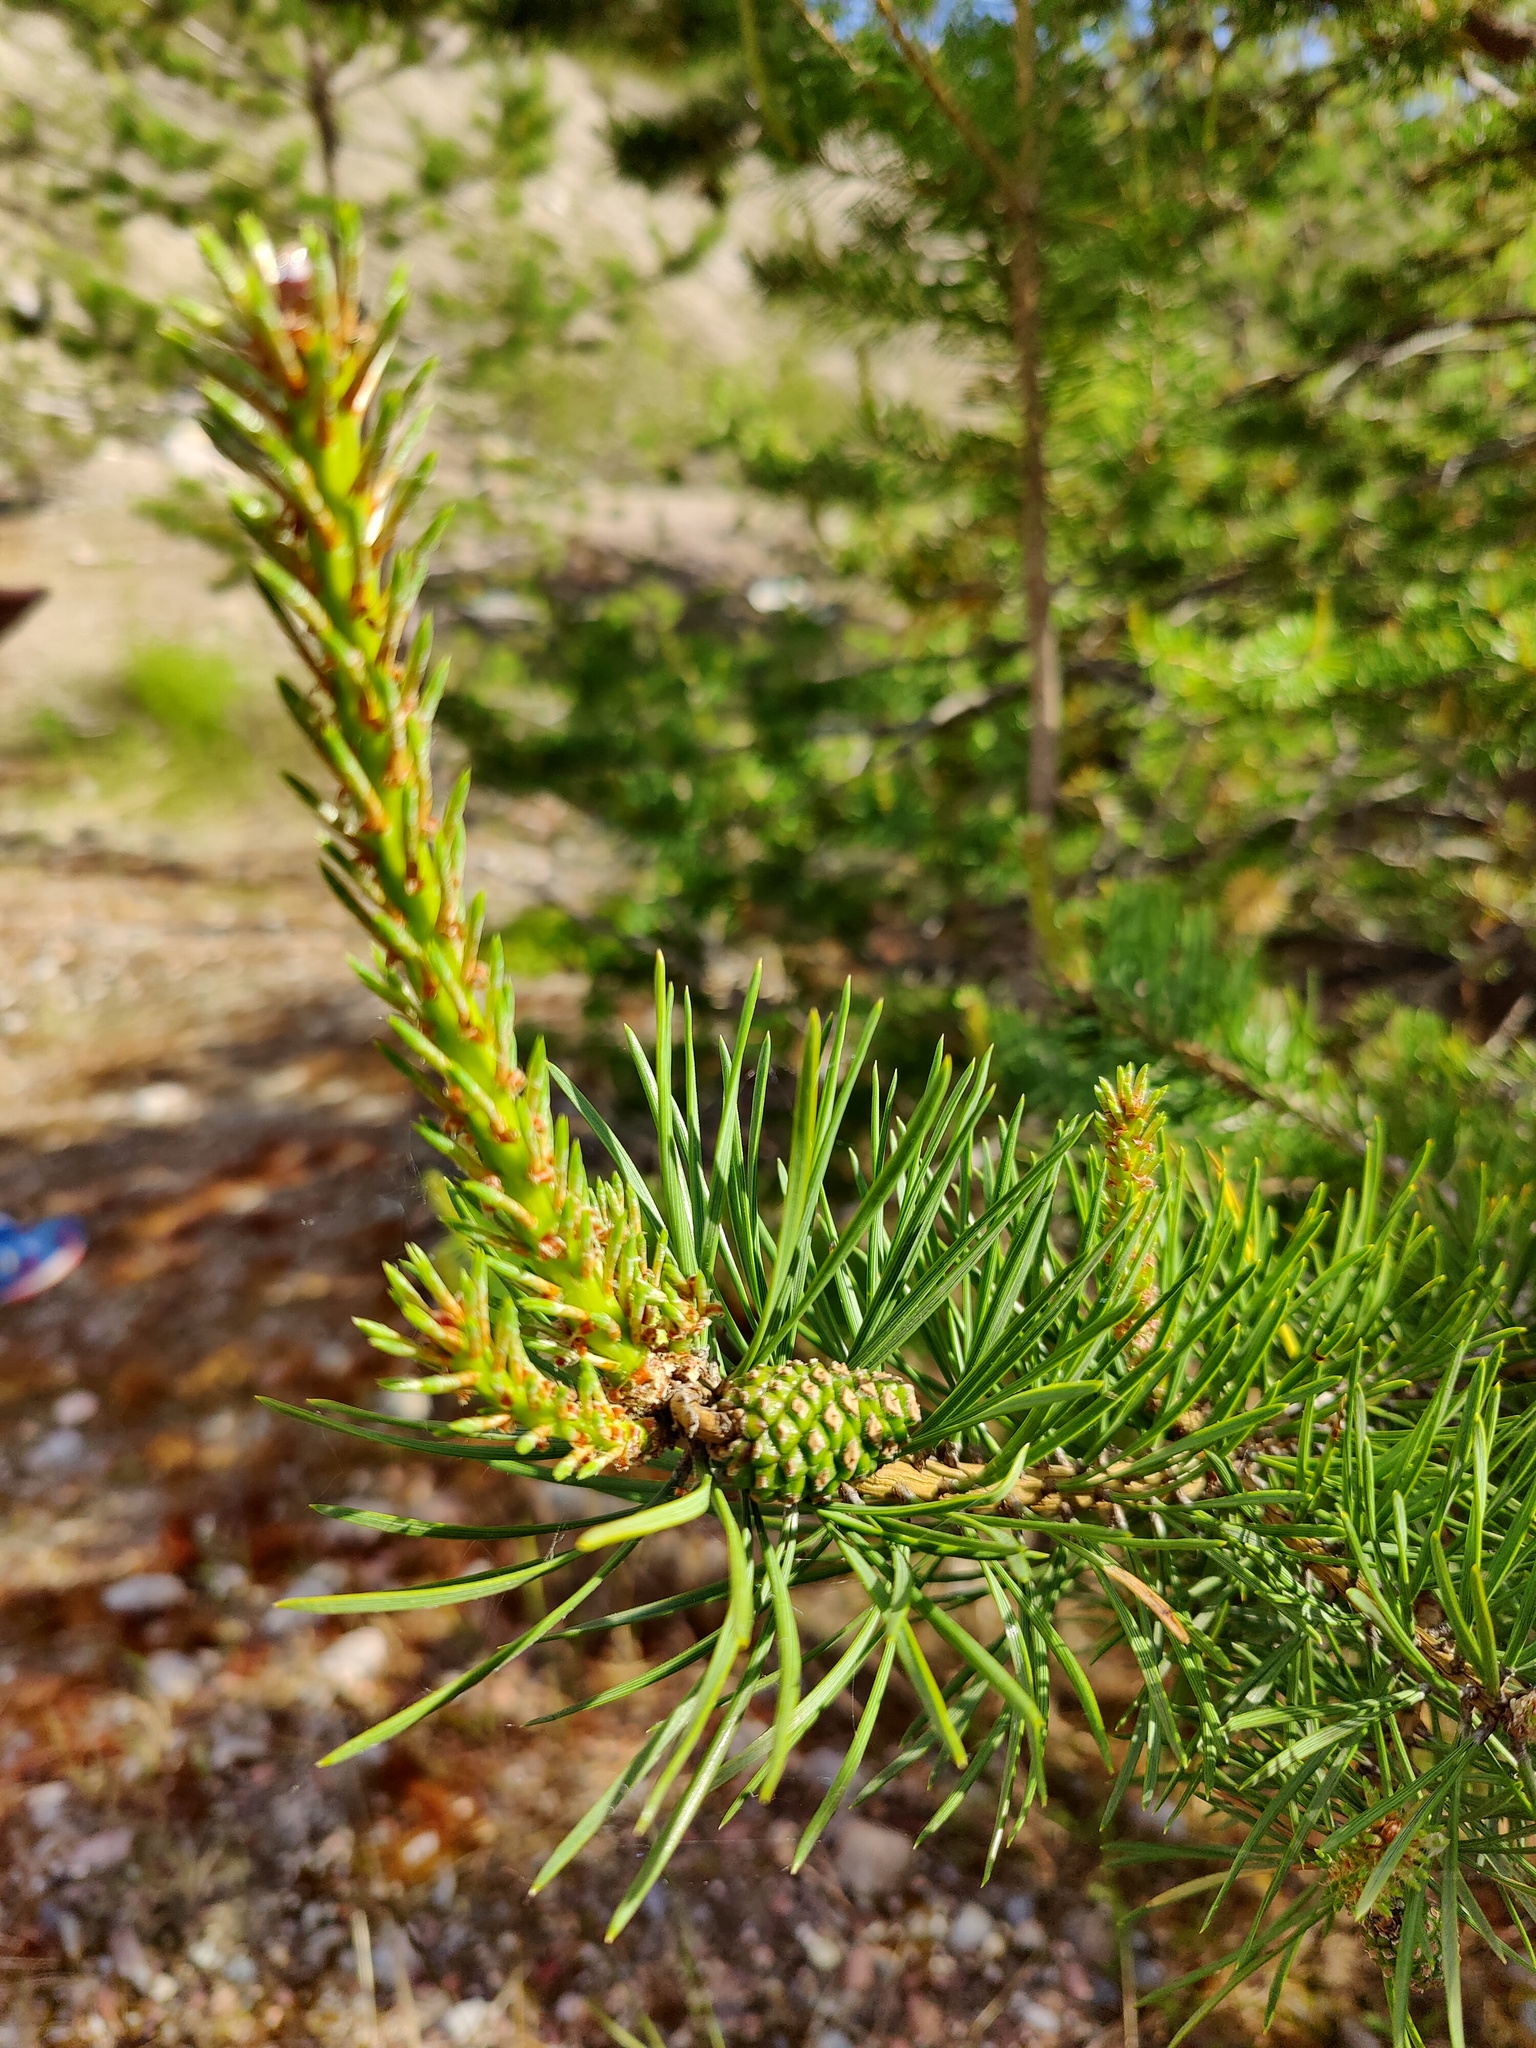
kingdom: Plantae
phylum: Tracheophyta
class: Pinopsida
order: Pinales
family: Pinaceae
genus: Pinus
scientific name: Pinus sylvestris
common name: Scots pine
